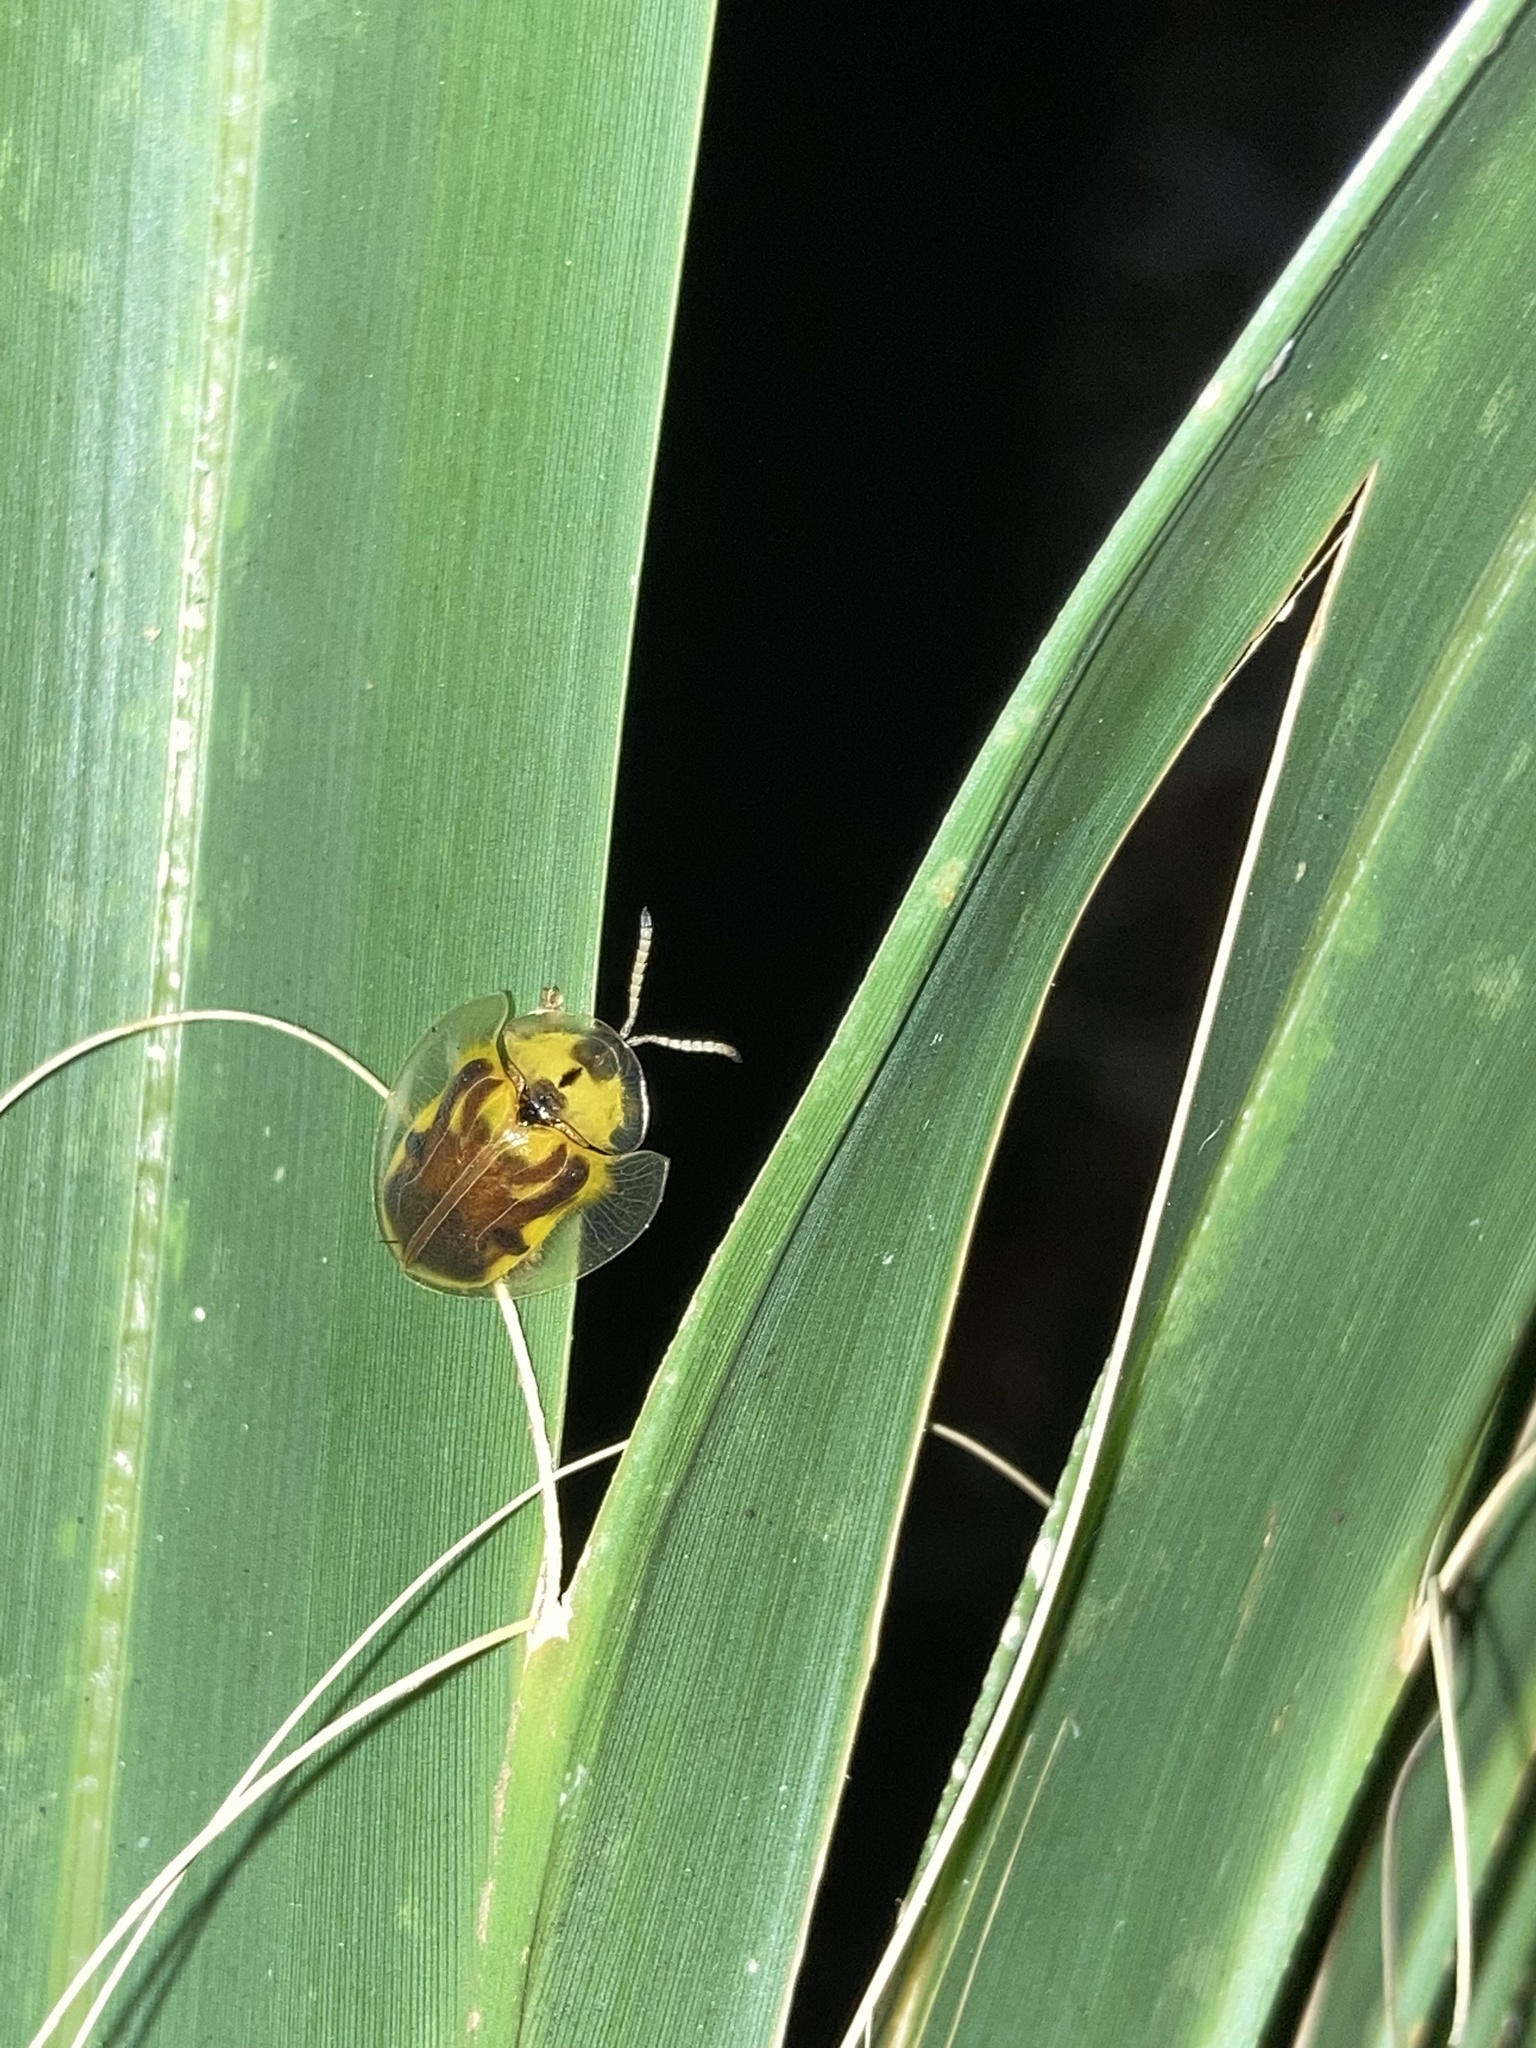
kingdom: Animalia
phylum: Arthropoda
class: Insecta
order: Coleoptera
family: Chrysomelidae
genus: Eurypepla
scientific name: Eurypepla calochroma
